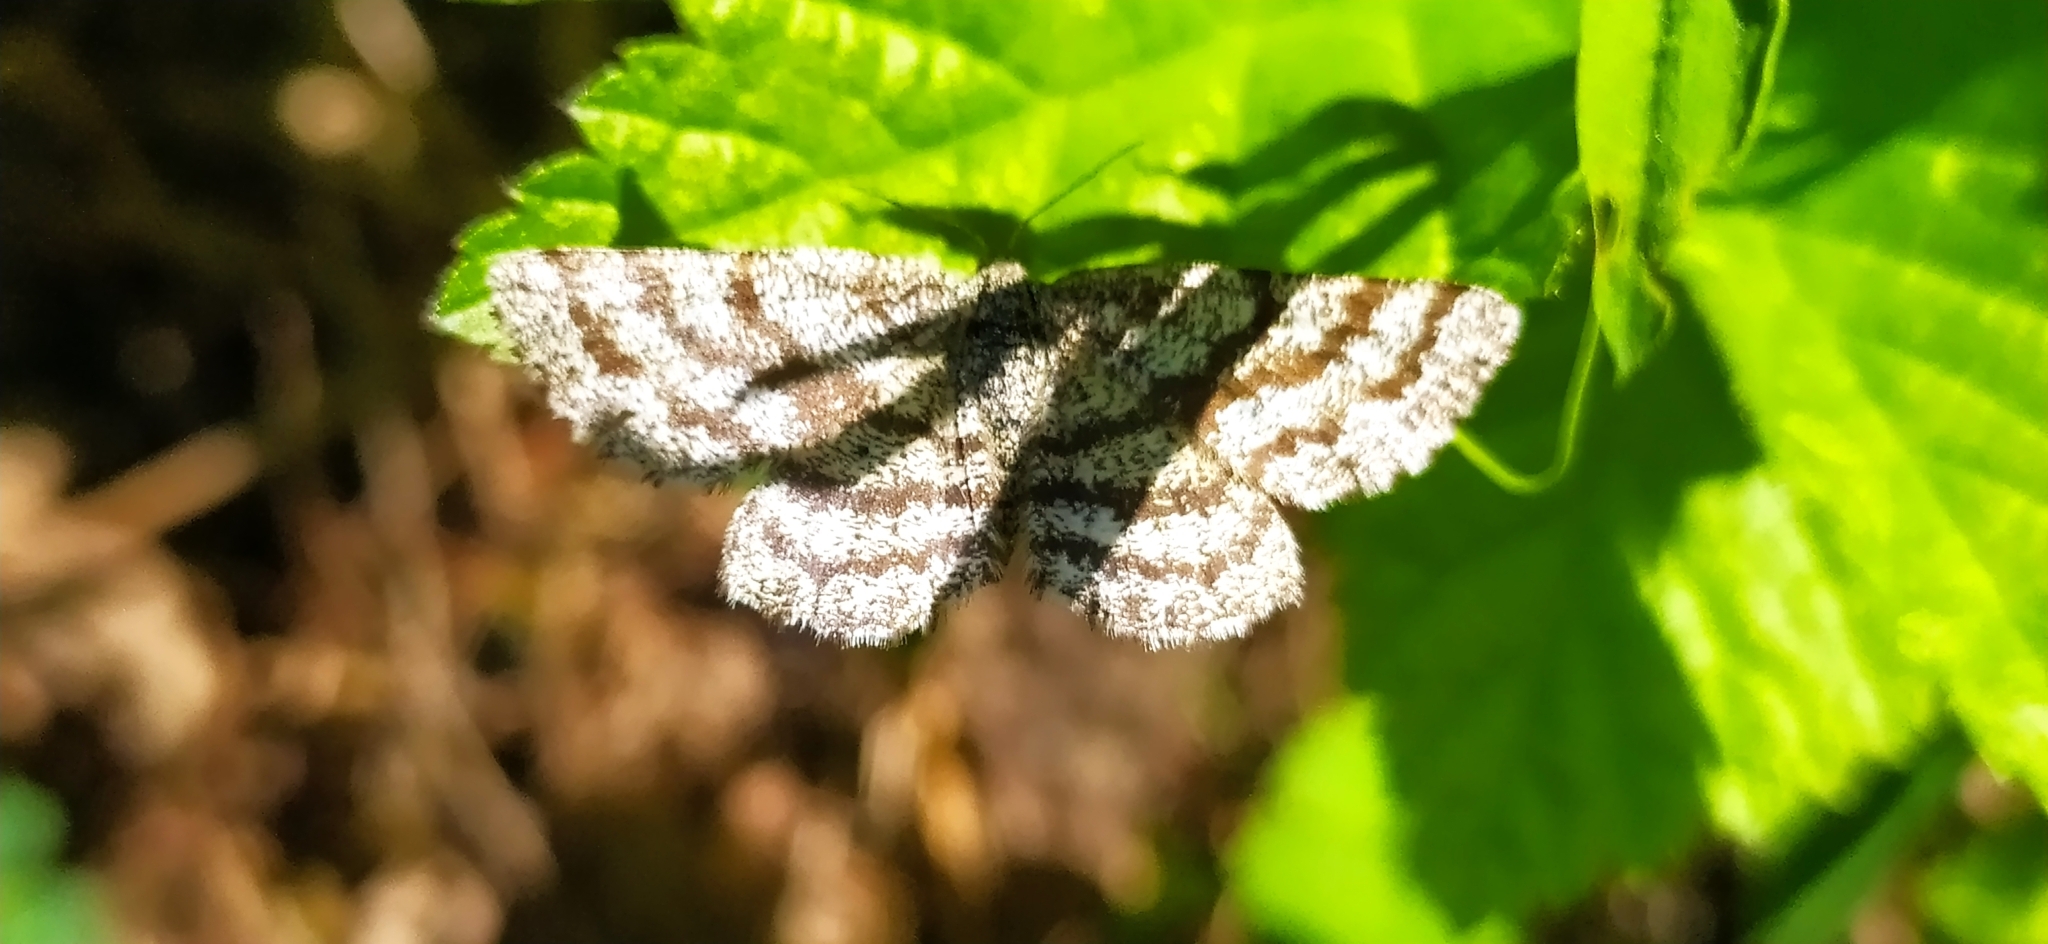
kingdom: Animalia
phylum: Arthropoda
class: Insecta
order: Lepidoptera
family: Geometridae
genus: Ematurga
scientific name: Ematurga atomaria
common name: Common heath
